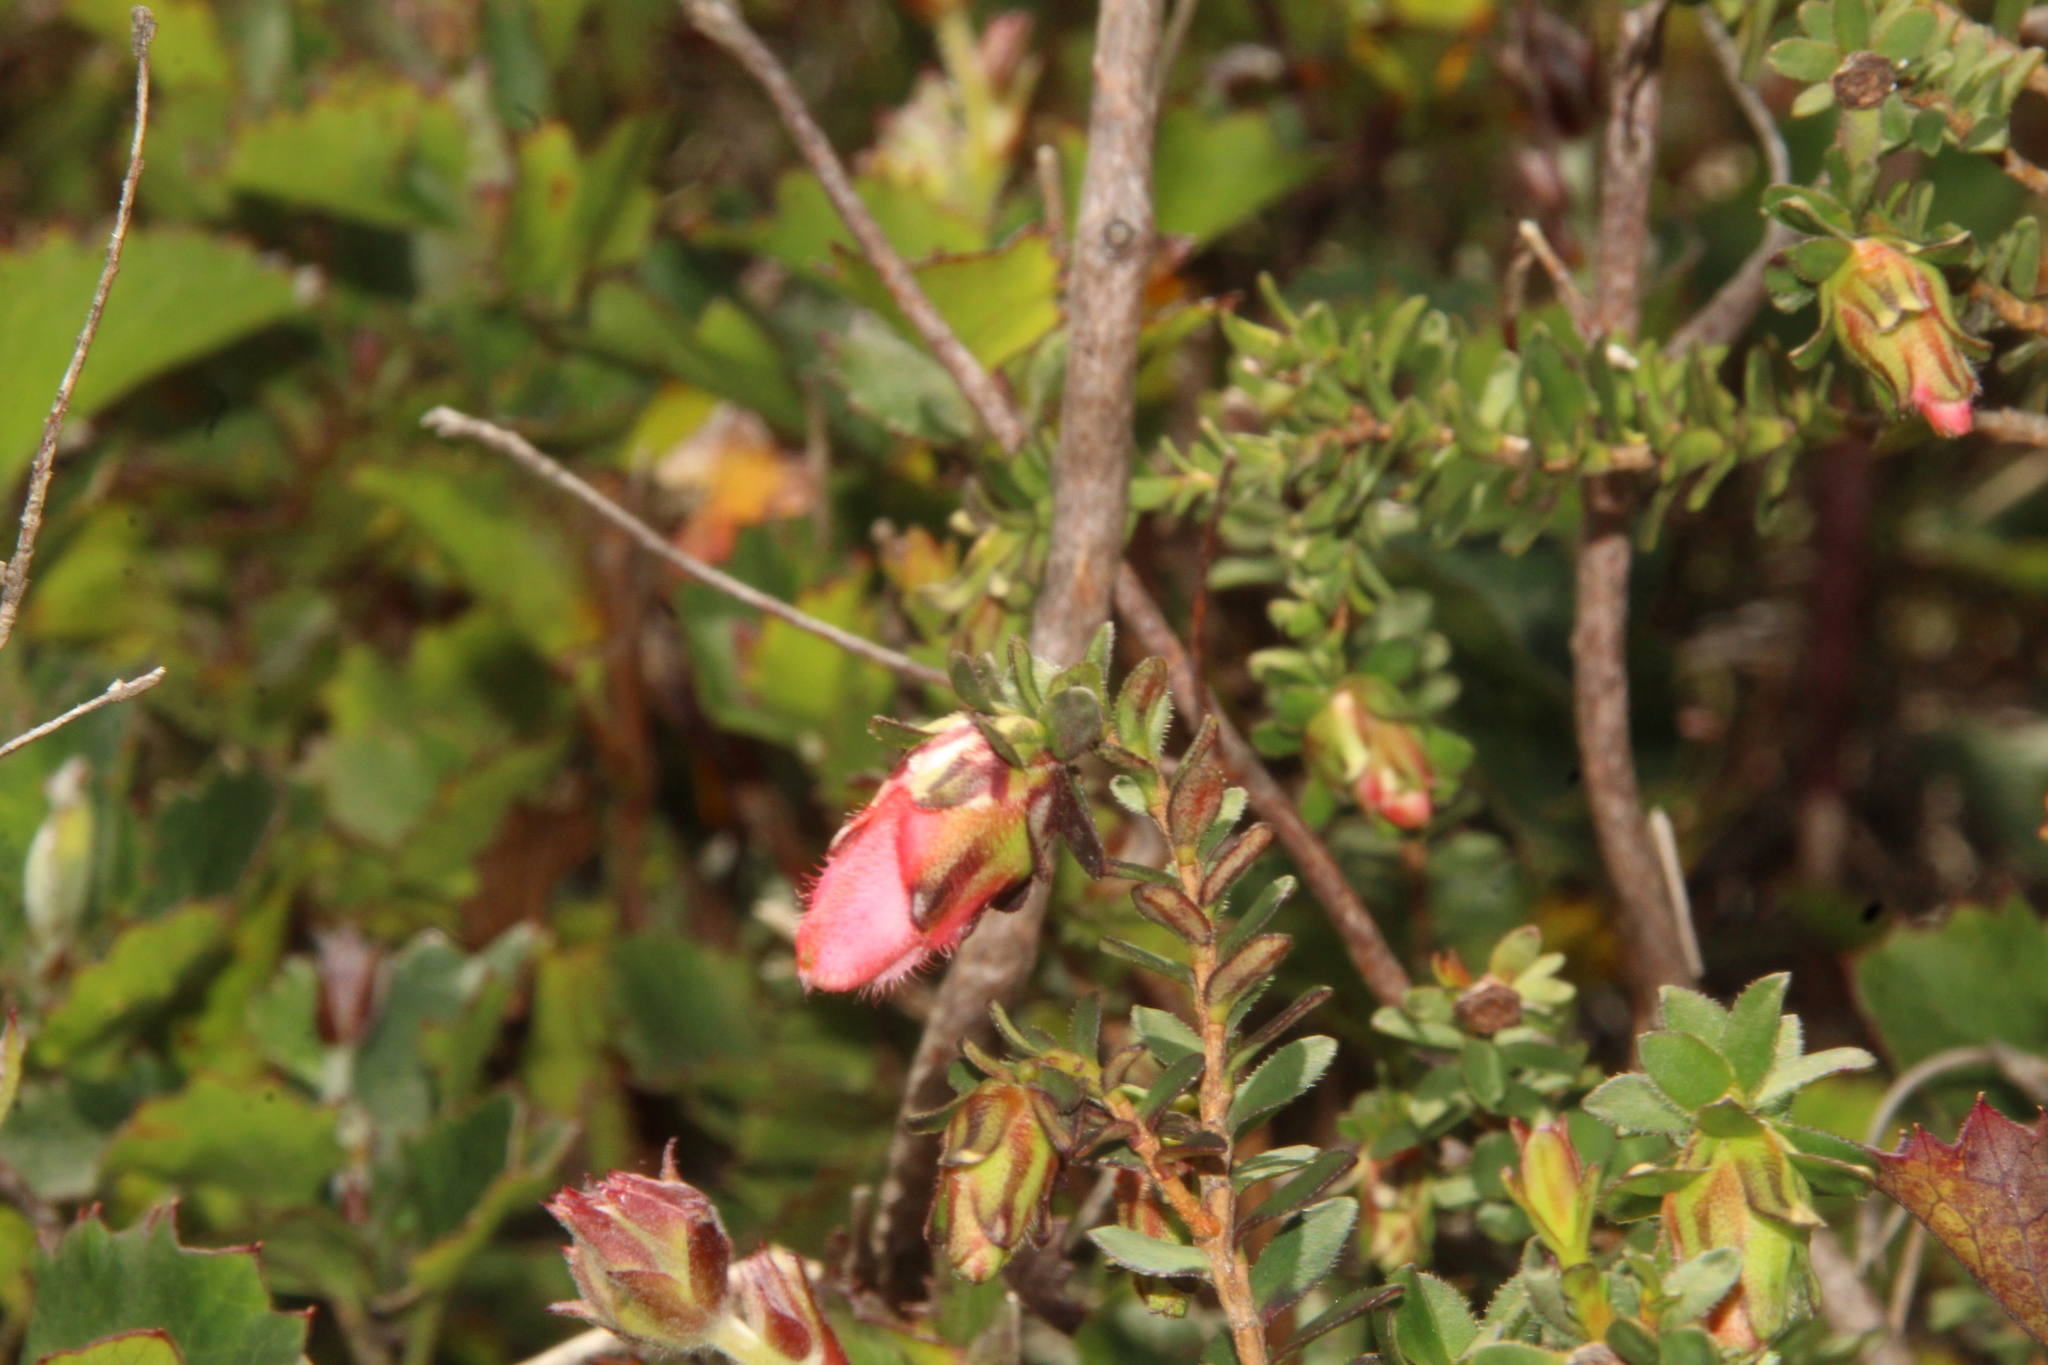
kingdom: Plantae
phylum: Tracheophyta
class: Magnoliopsida
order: Myrtales
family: Myrtaceae
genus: Darwinia
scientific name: Darwinia squarrosa
